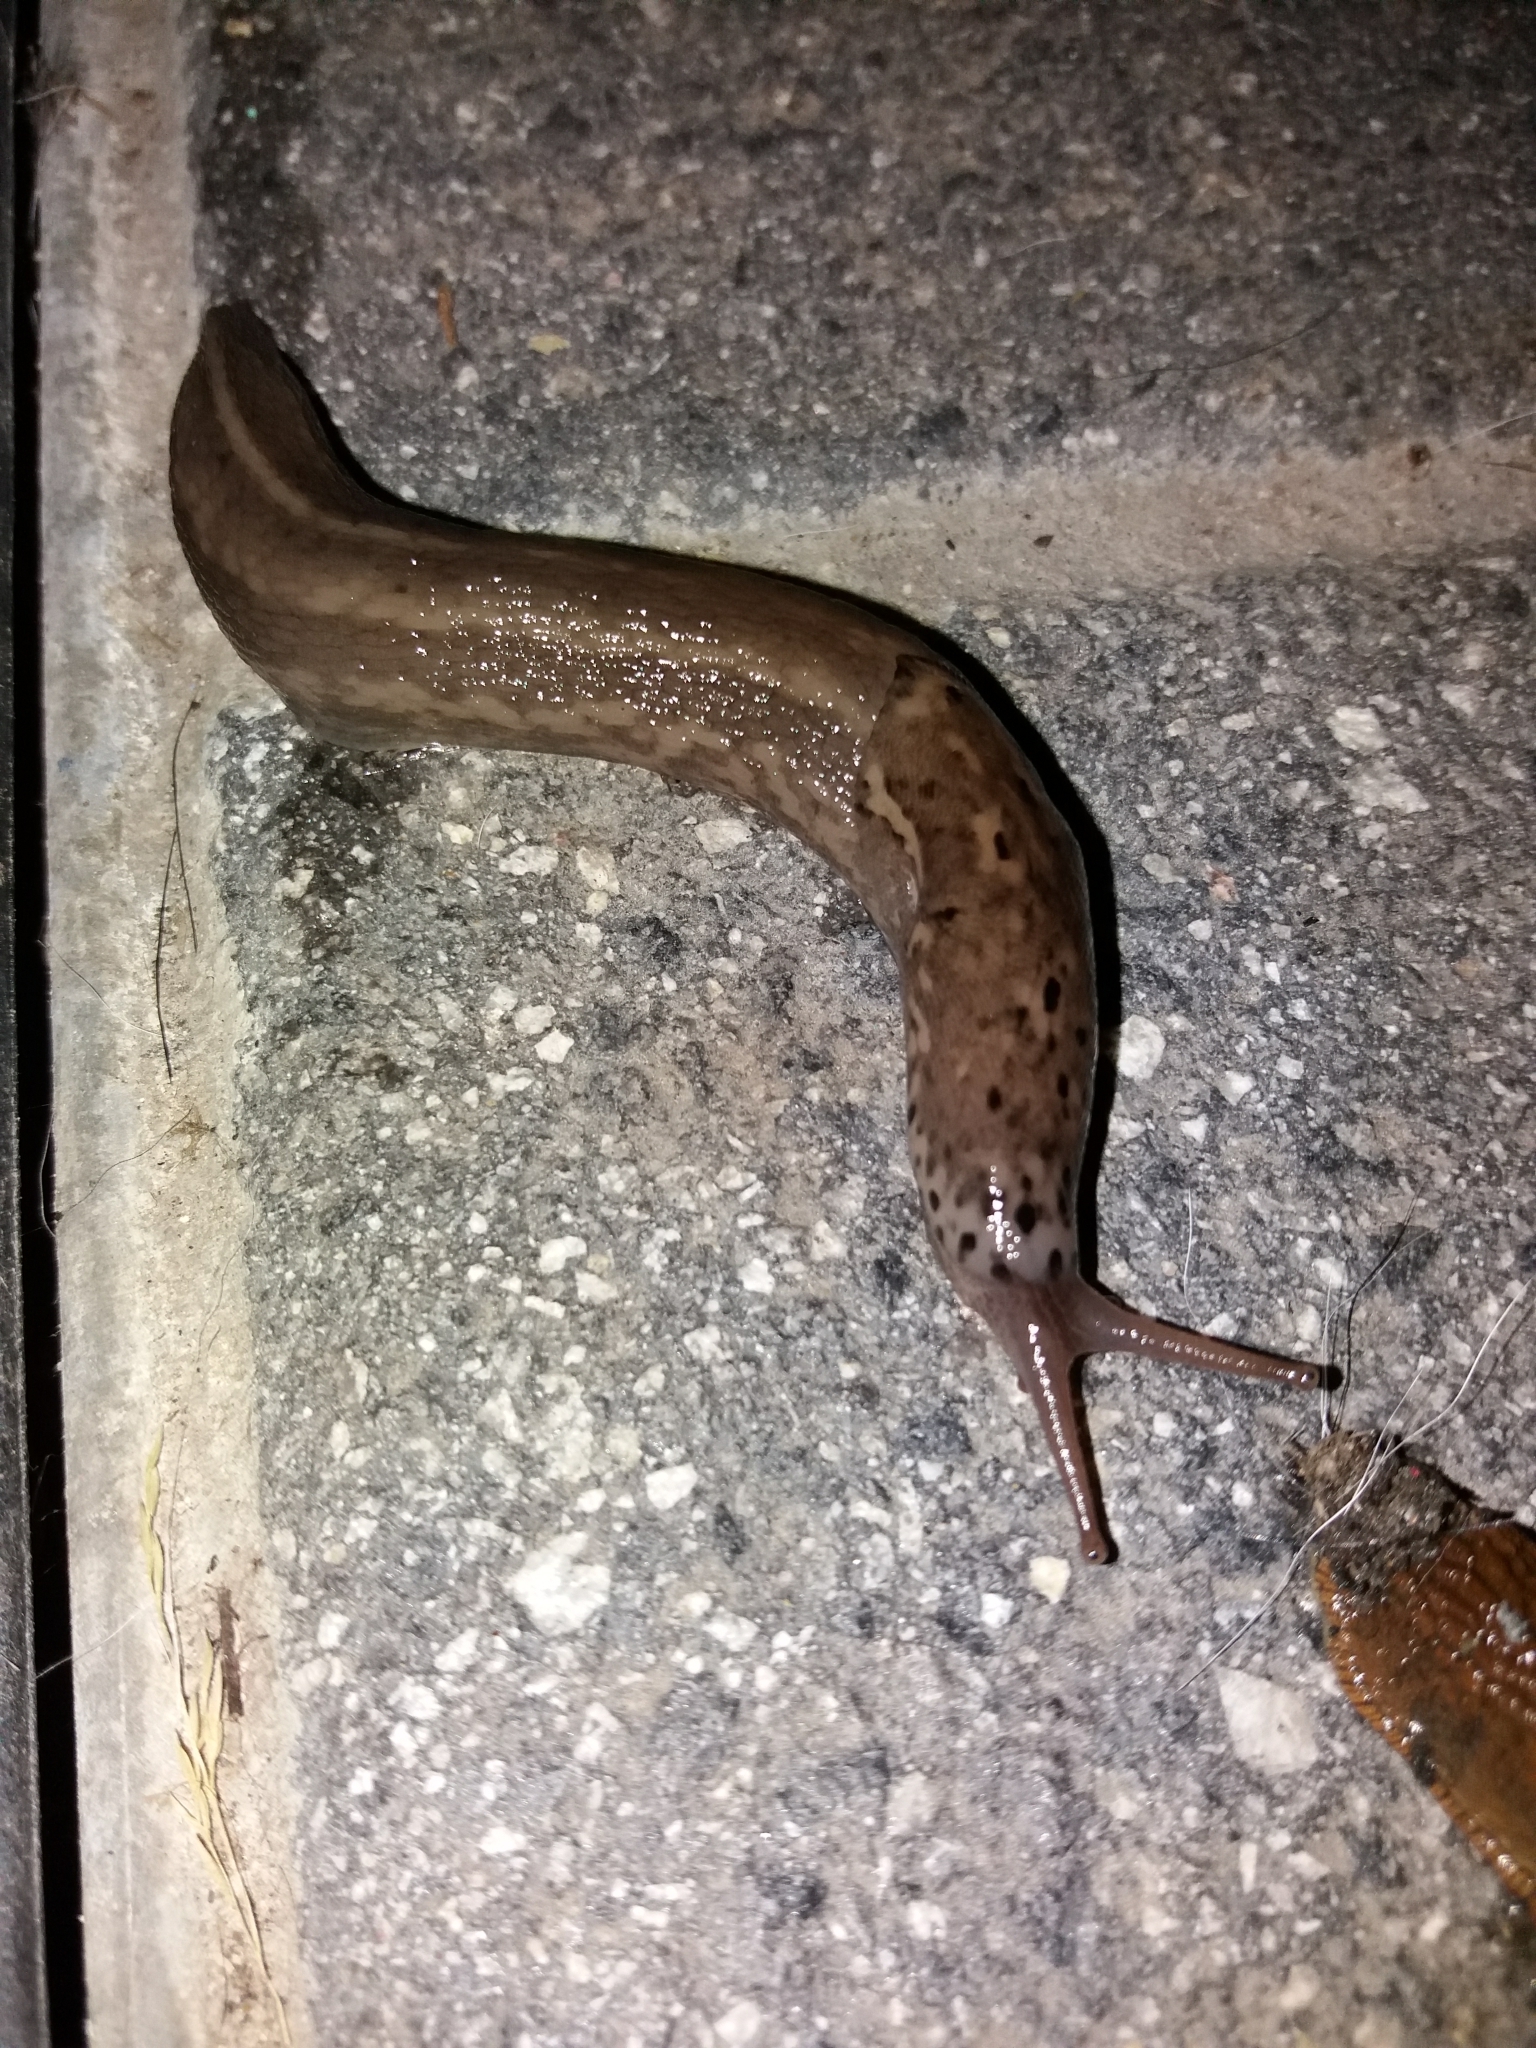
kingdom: Animalia
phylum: Mollusca
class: Gastropoda
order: Stylommatophora
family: Limacidae
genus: Limax
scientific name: Limax maximus
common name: Great grey slug
